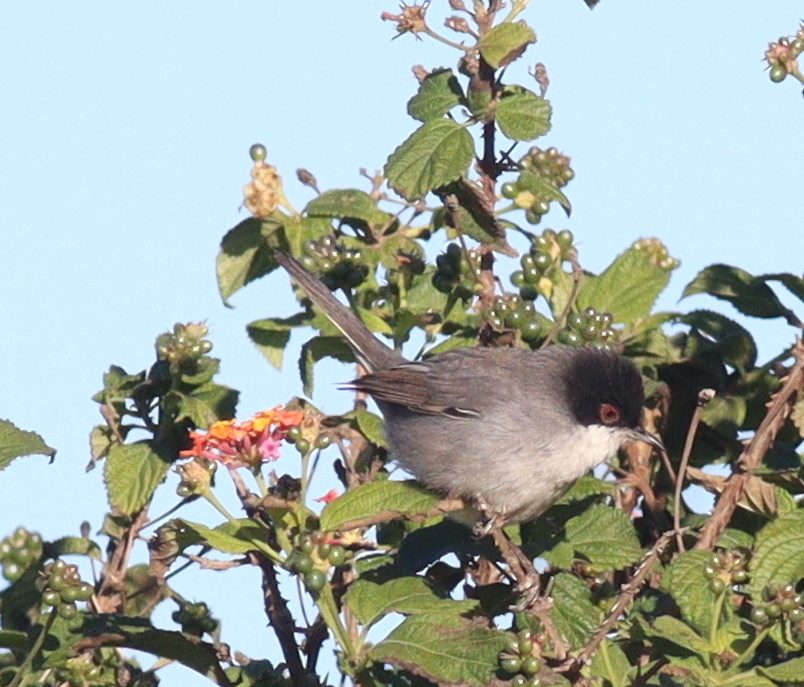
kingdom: Animalia
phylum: Chordata
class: Aves
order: Passeriformes
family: Sylviidae
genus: Curruca
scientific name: Curruca melanocephala
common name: Sardinian warbler
